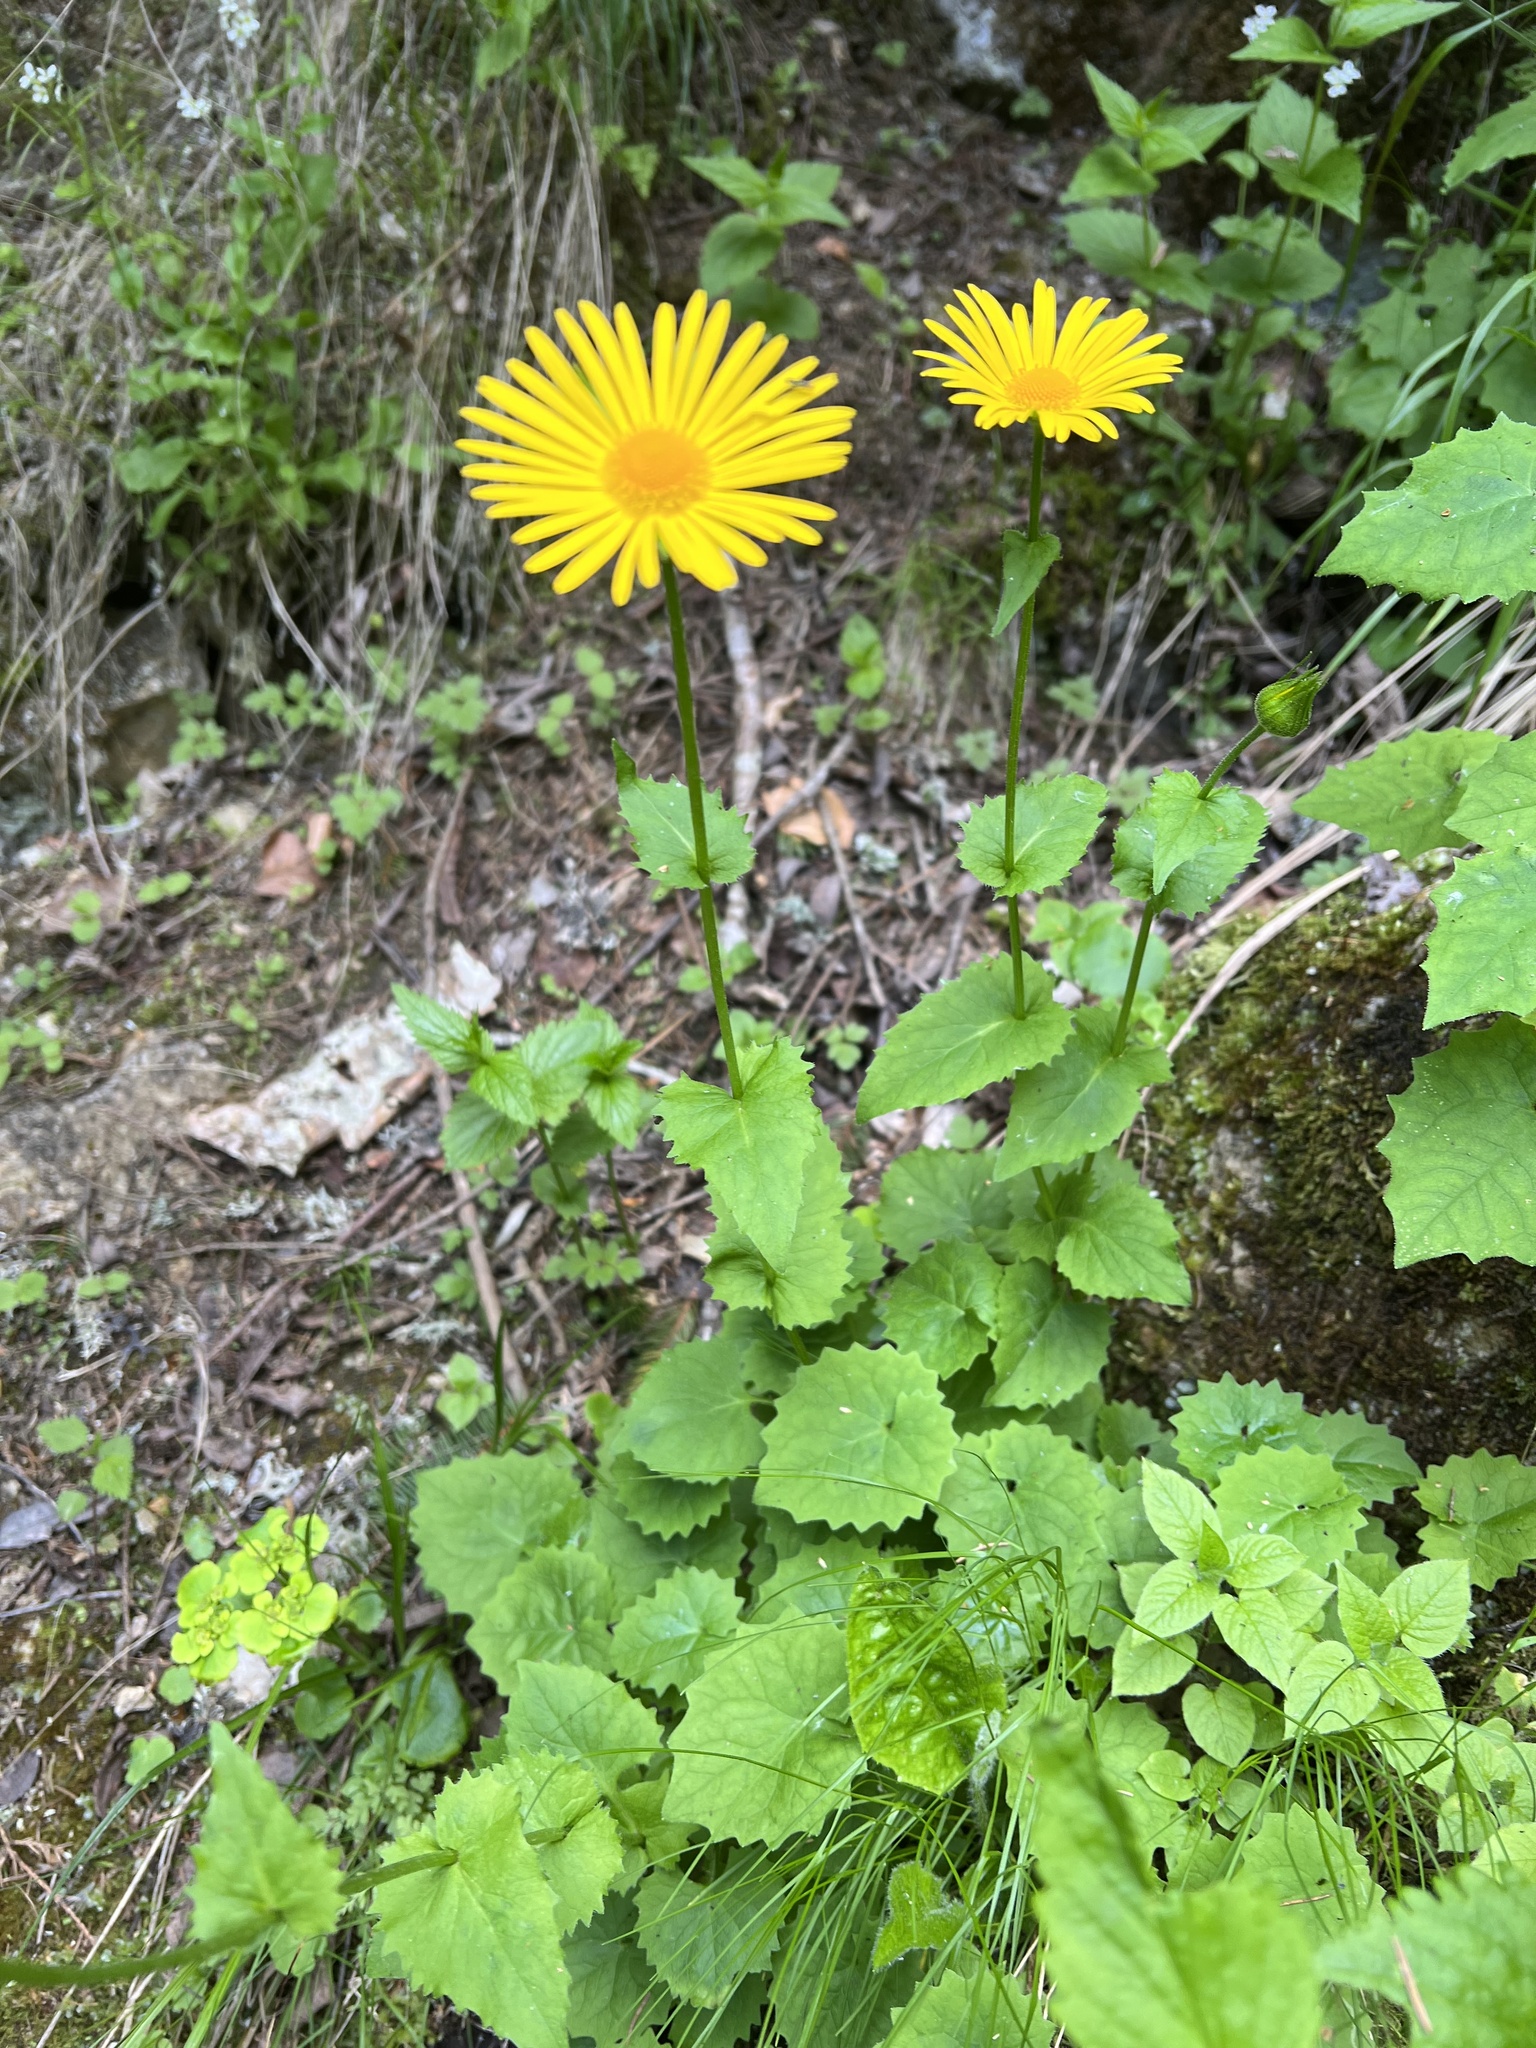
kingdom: Plantae
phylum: Tracheophyta
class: Magnoliopsida
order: Asterales
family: Asteraceae
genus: Doronicum
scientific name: Doronicum carpaticum
